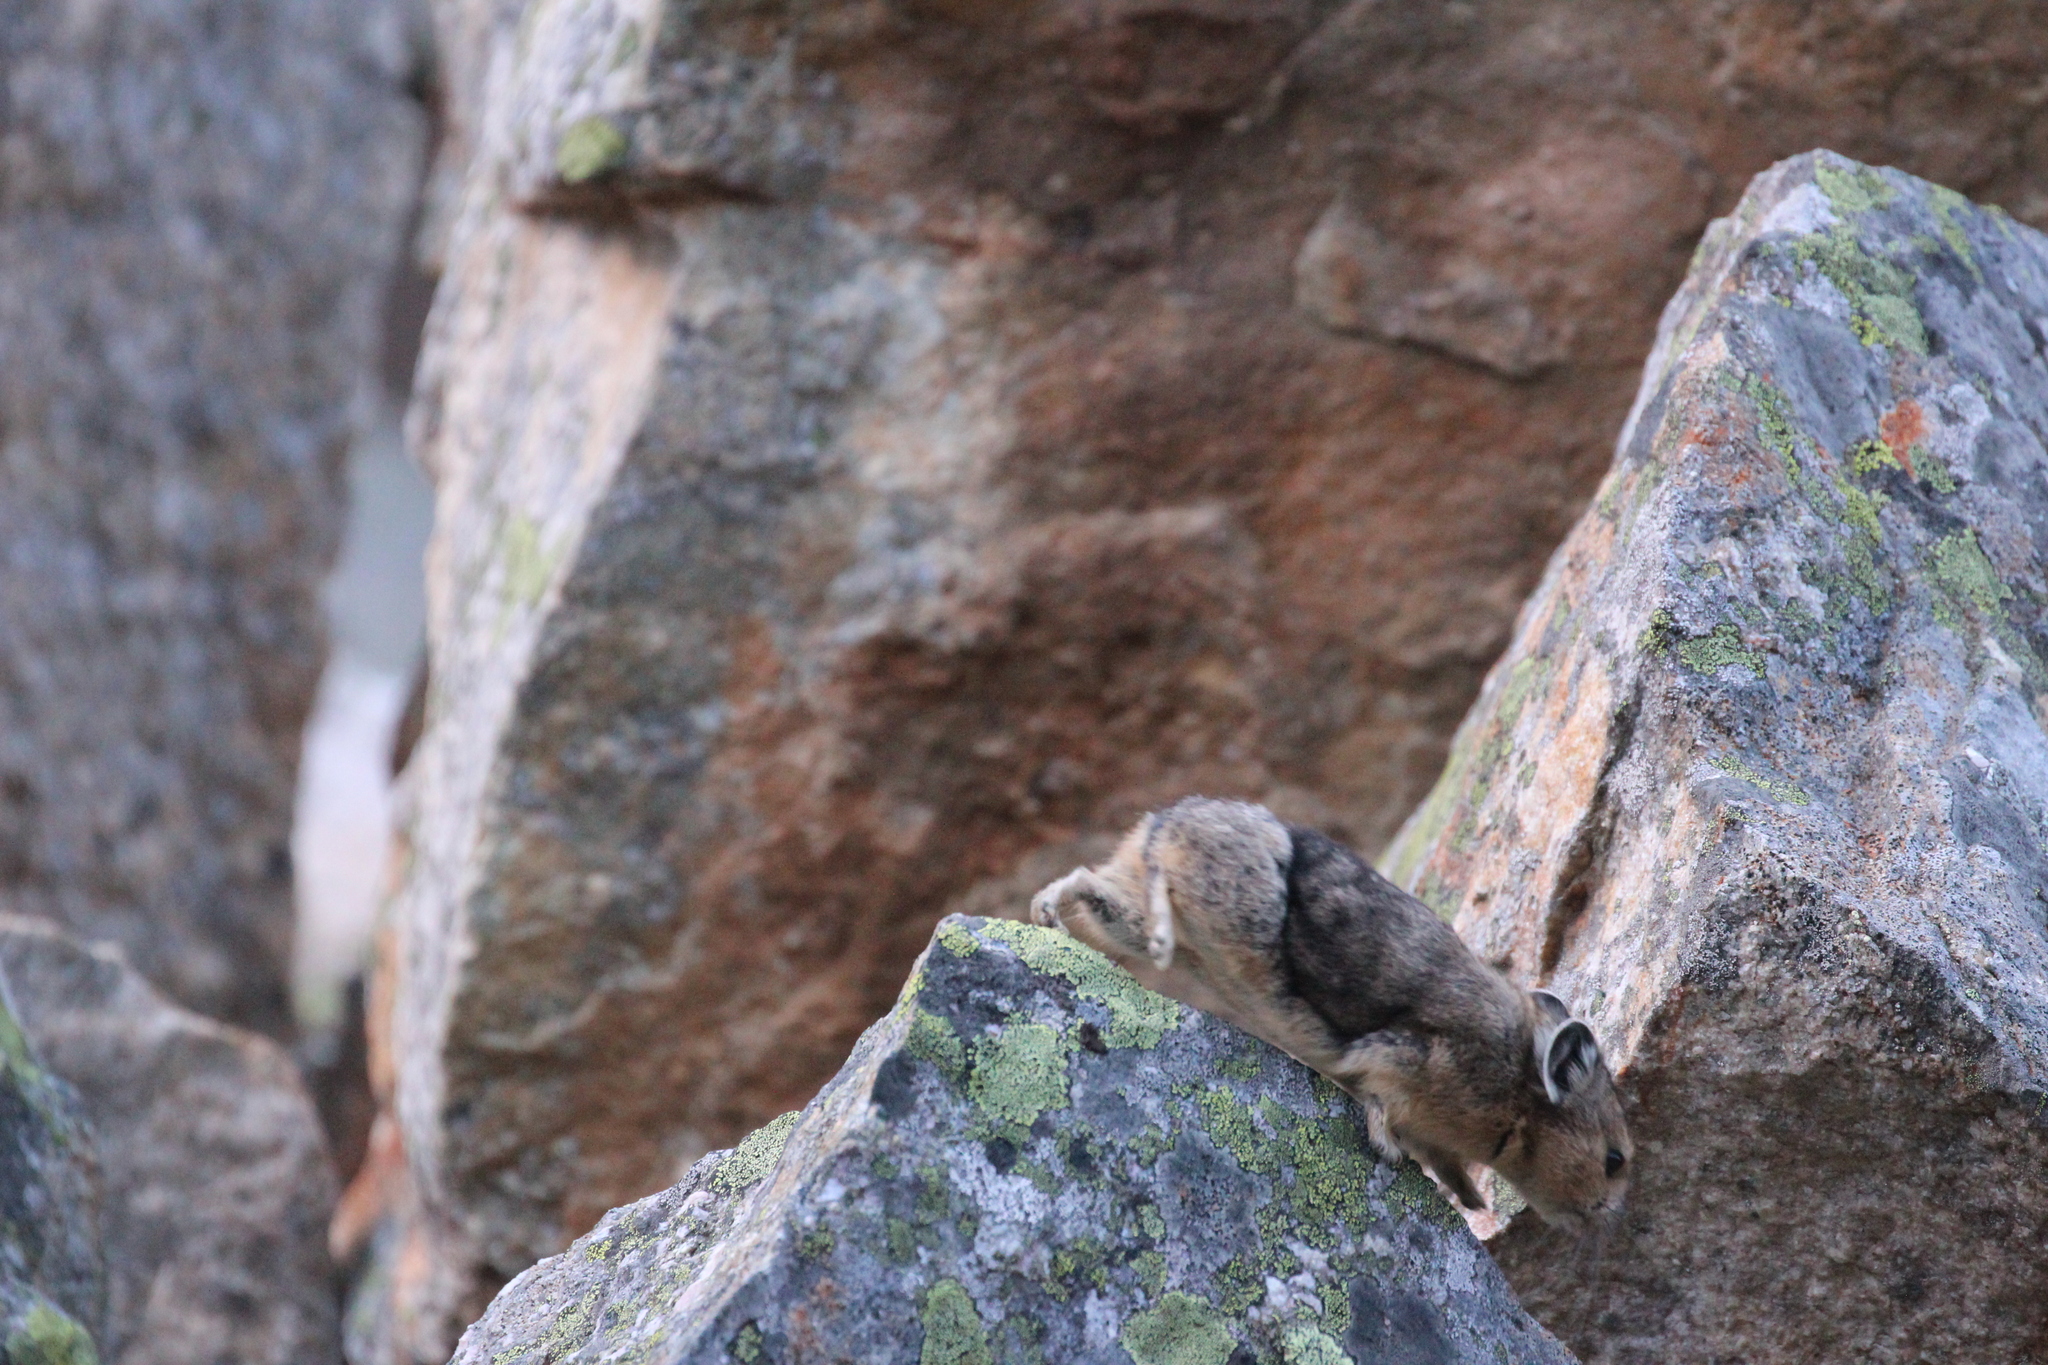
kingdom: Animalia
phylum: Chordata
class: Mammalia
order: Lagomorpha
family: Ochotonidae
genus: Ochotona
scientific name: Ochotona princeps
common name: American pika
